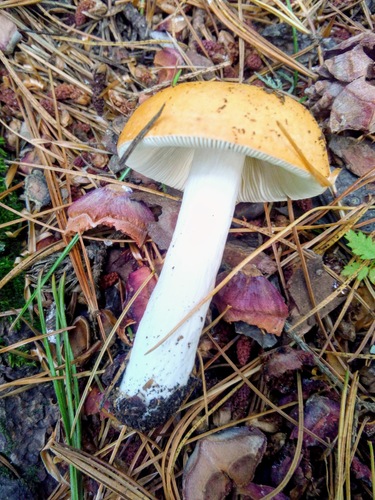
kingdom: Fungi
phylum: Basidiomycota
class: Agaricomycetes
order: Russulales
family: Russulaceae
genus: Russula
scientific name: Russula
